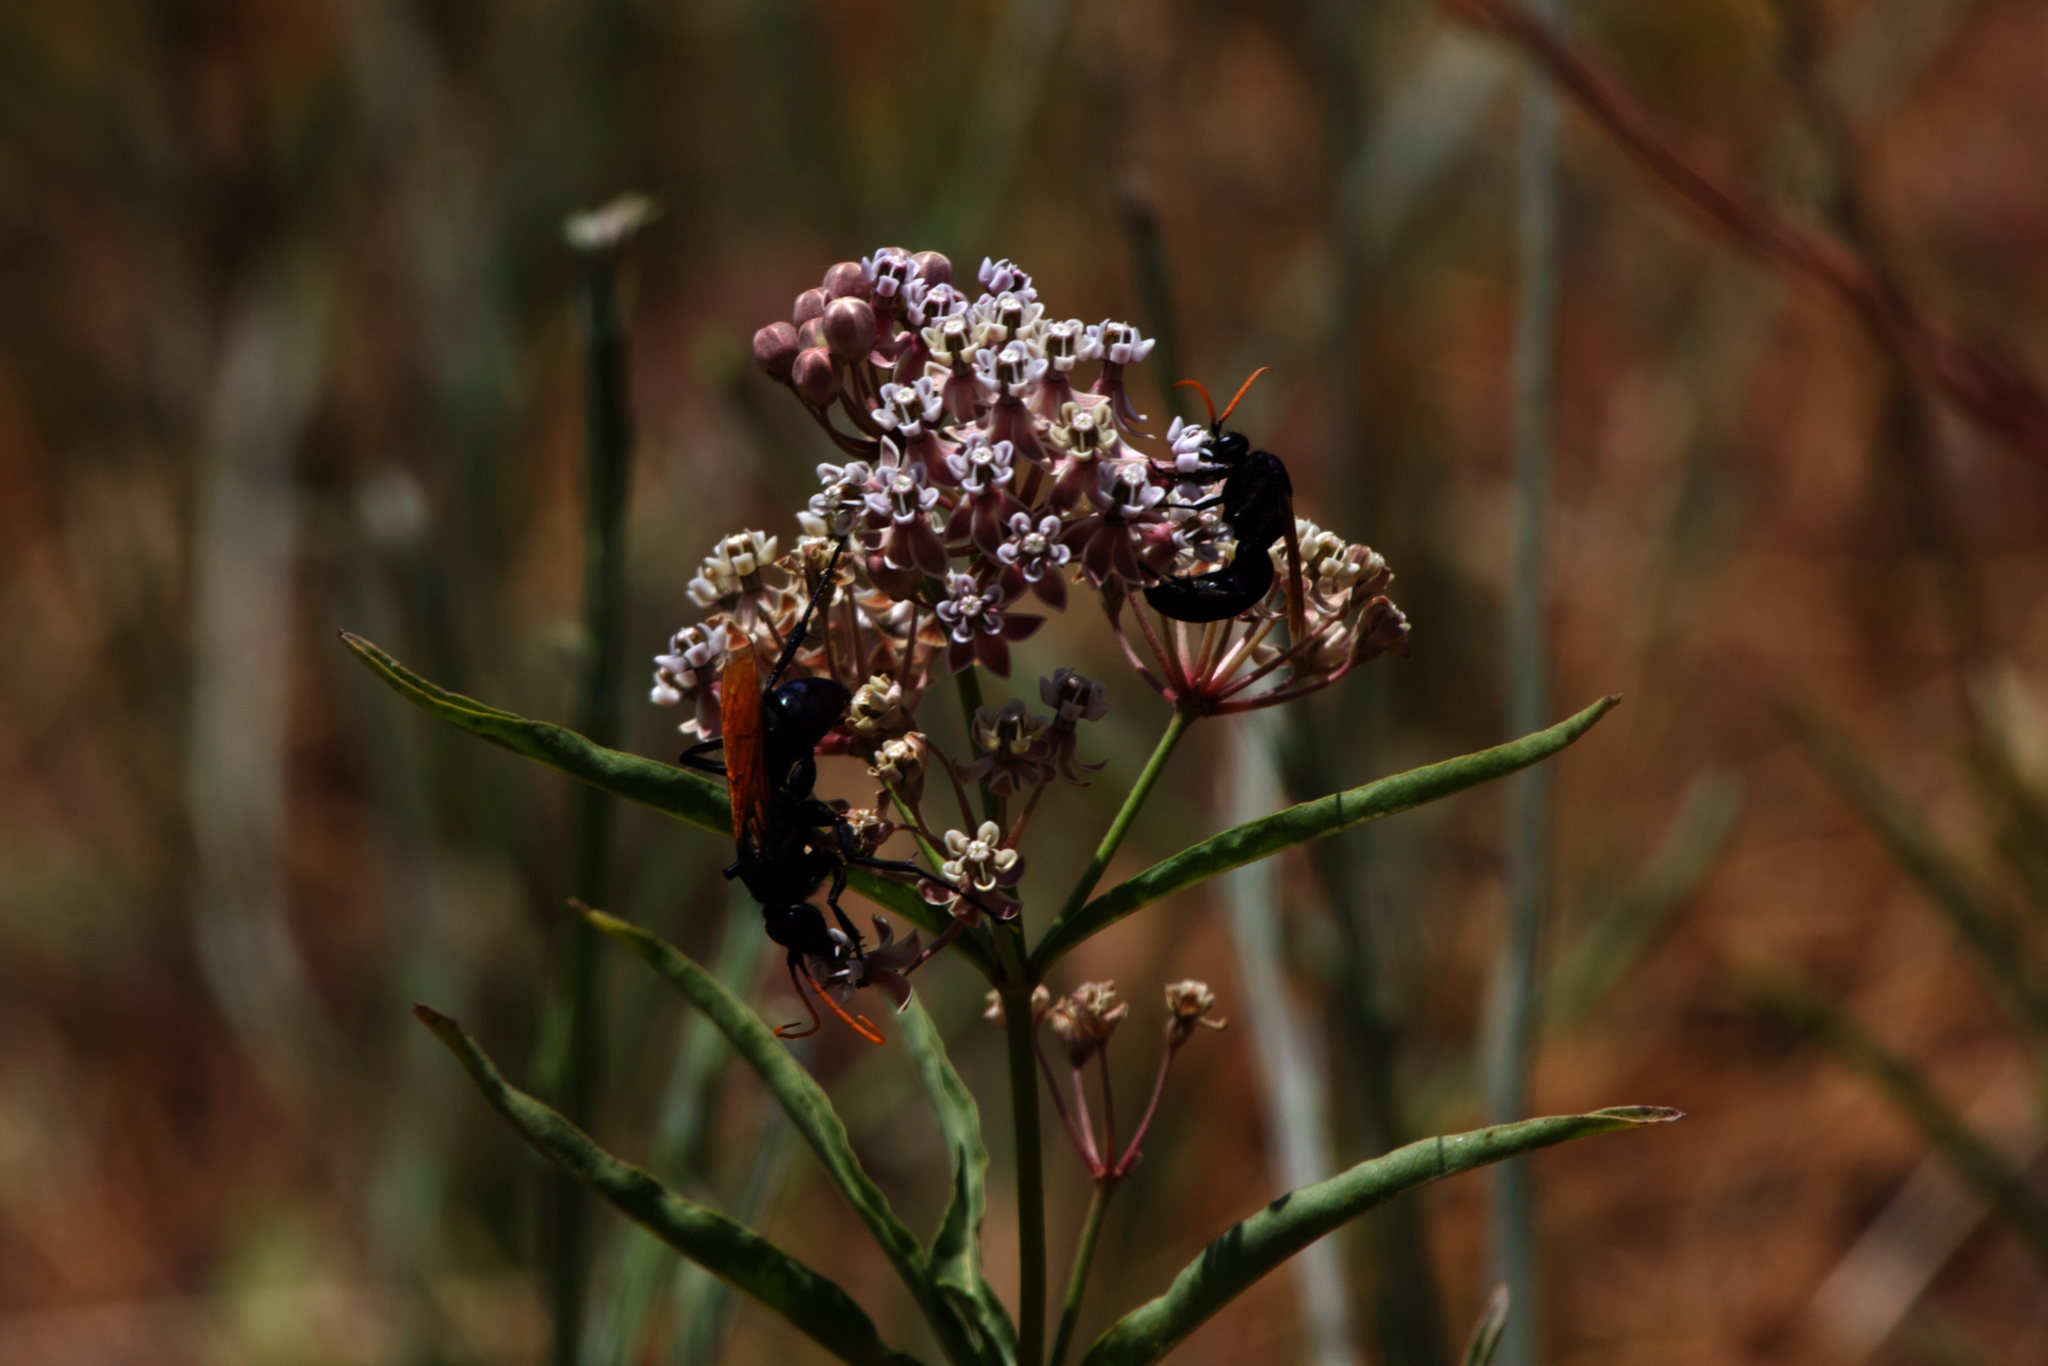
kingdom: Plantae
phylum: Tracheophyta
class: Magnoliopsida
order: Gentianales
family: Apocynaceae
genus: Asclepias
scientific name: Asclepias fascicularis
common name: Mexican milkweed
